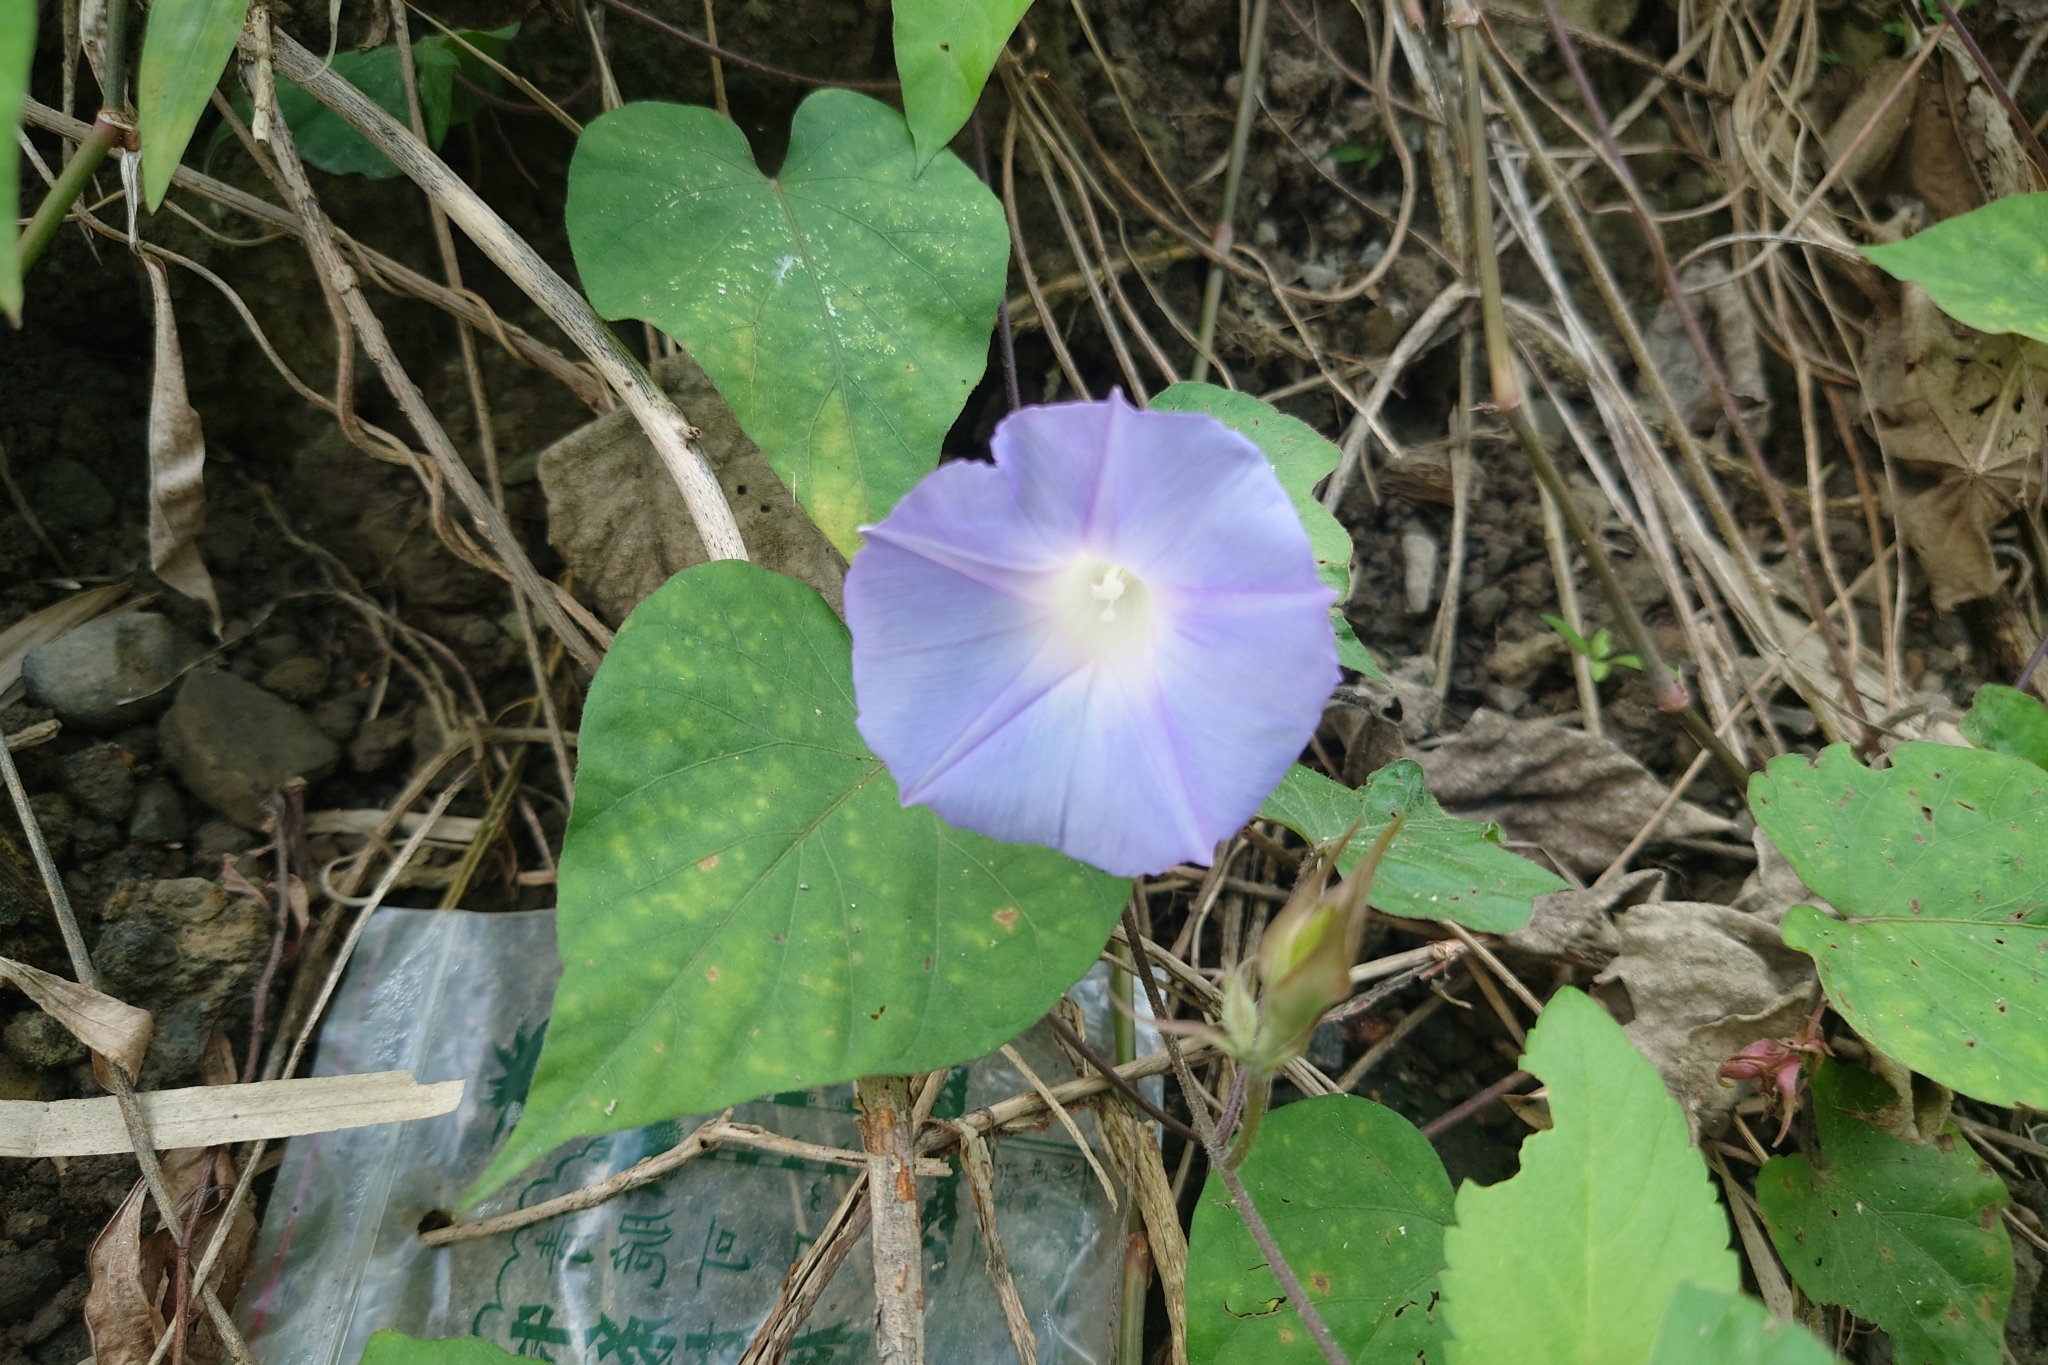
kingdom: Plantae
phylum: Tracheophyta
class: Magnoliopsida
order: Solanales
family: Convolvulaceae
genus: Ipomoea
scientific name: Ipomoea indica
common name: Blue dawnflower
